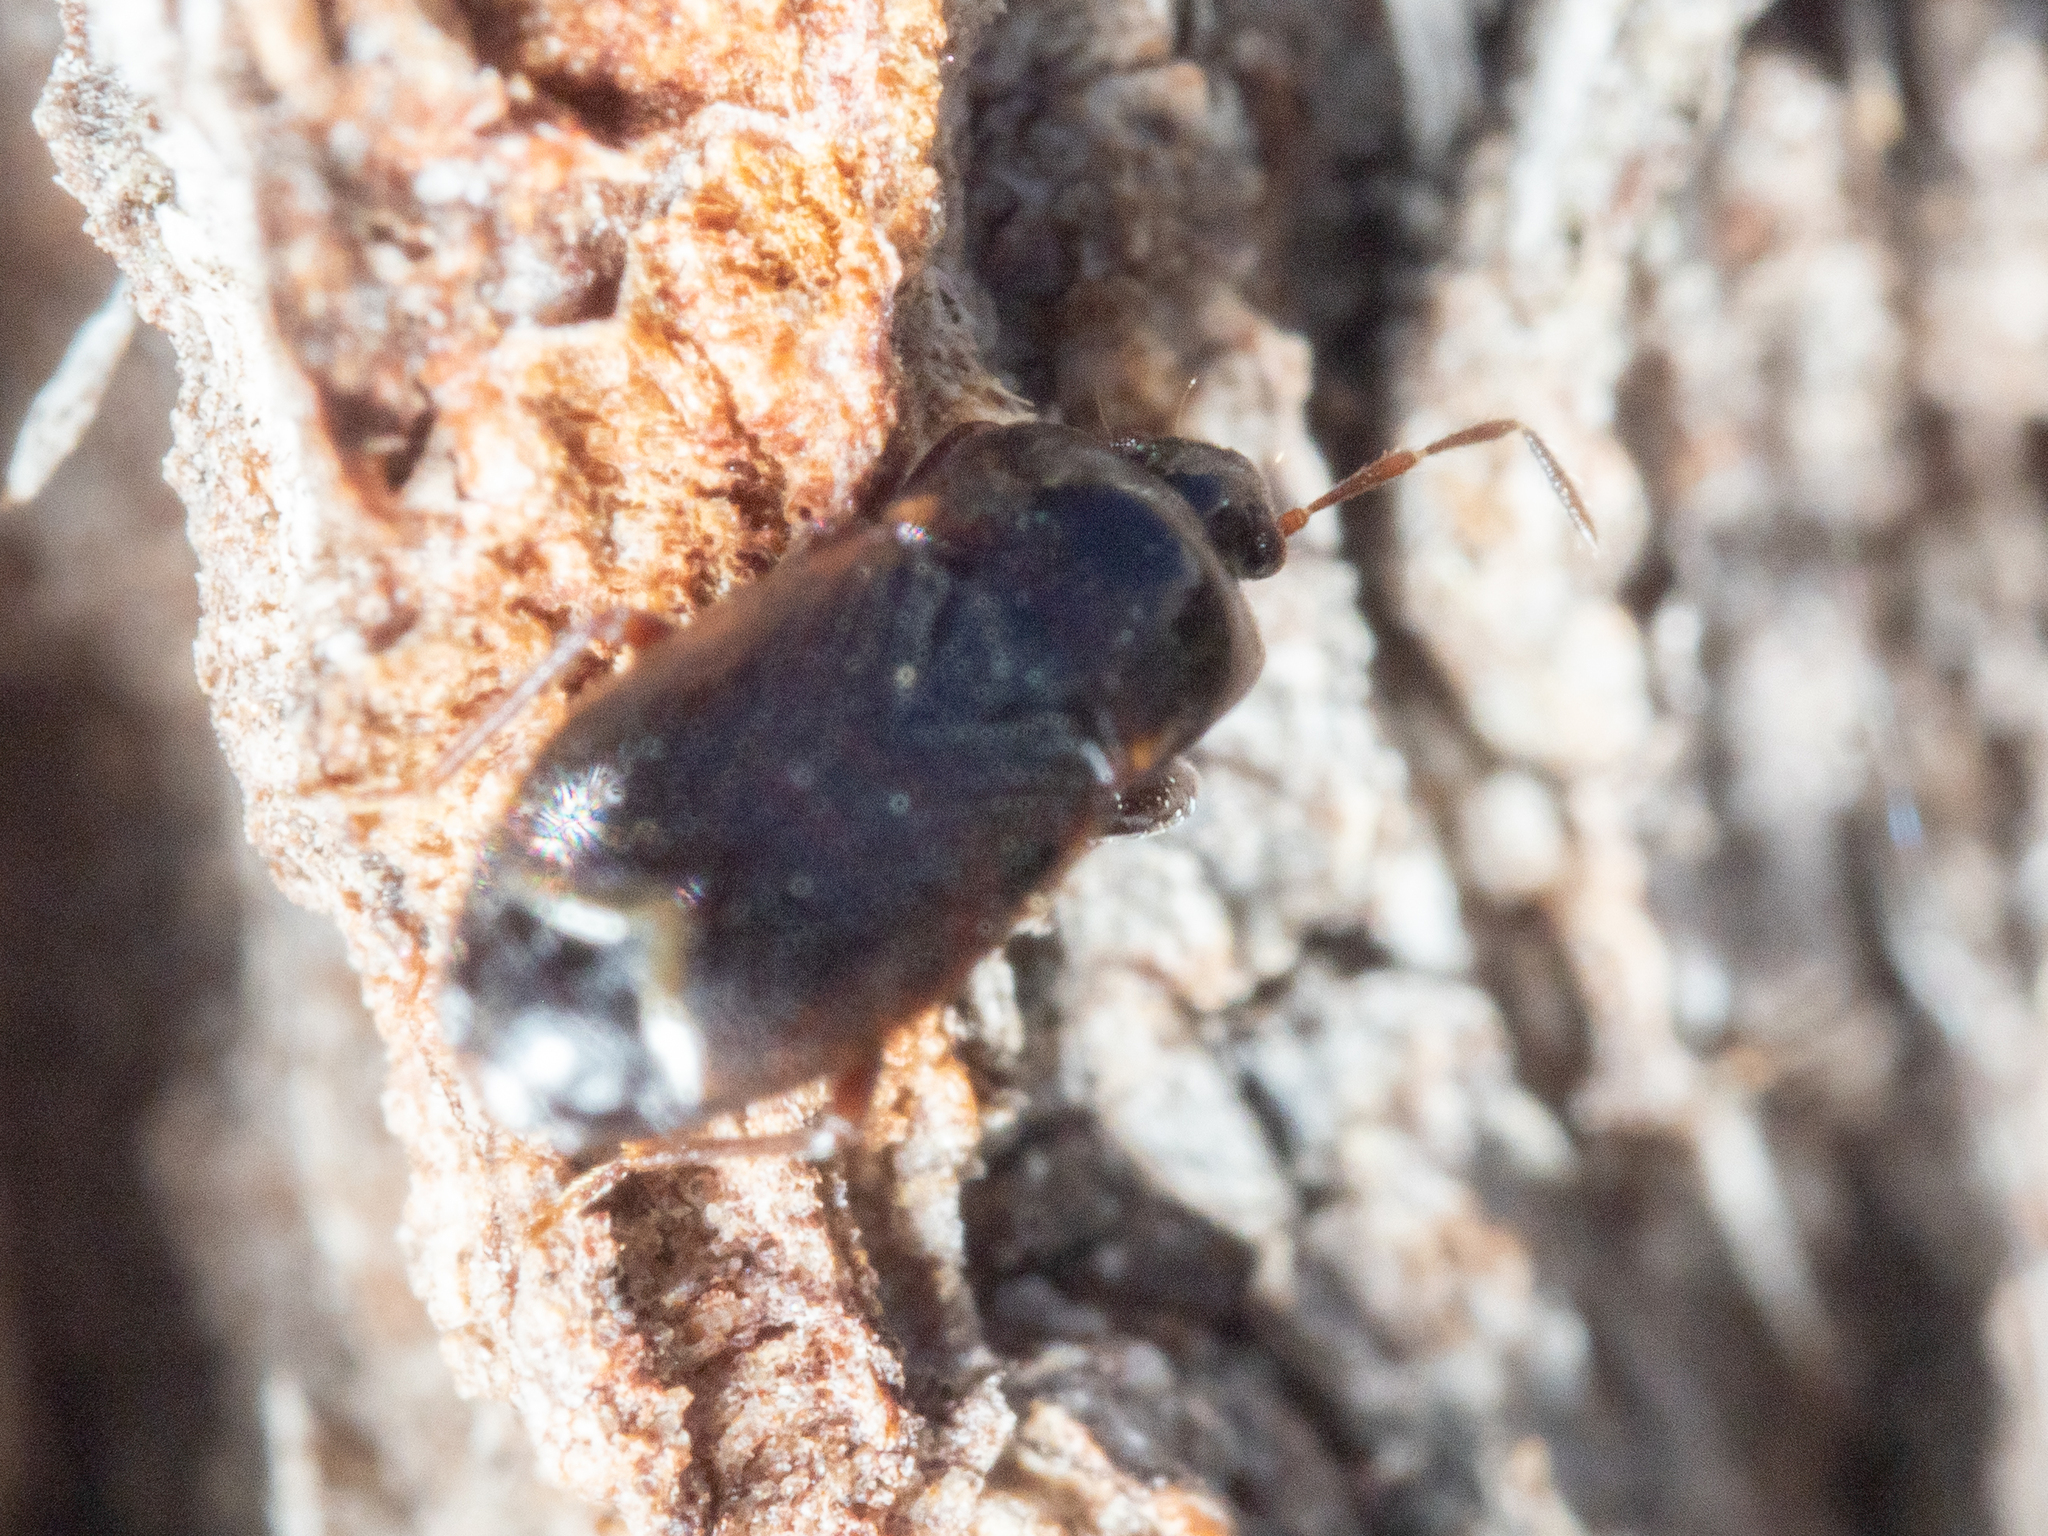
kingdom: Animalia
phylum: Arthropoda
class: Insecta
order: Hemiptera
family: Rhyparochromidae
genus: Plinthisus
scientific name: Plinthisus woodwardi
